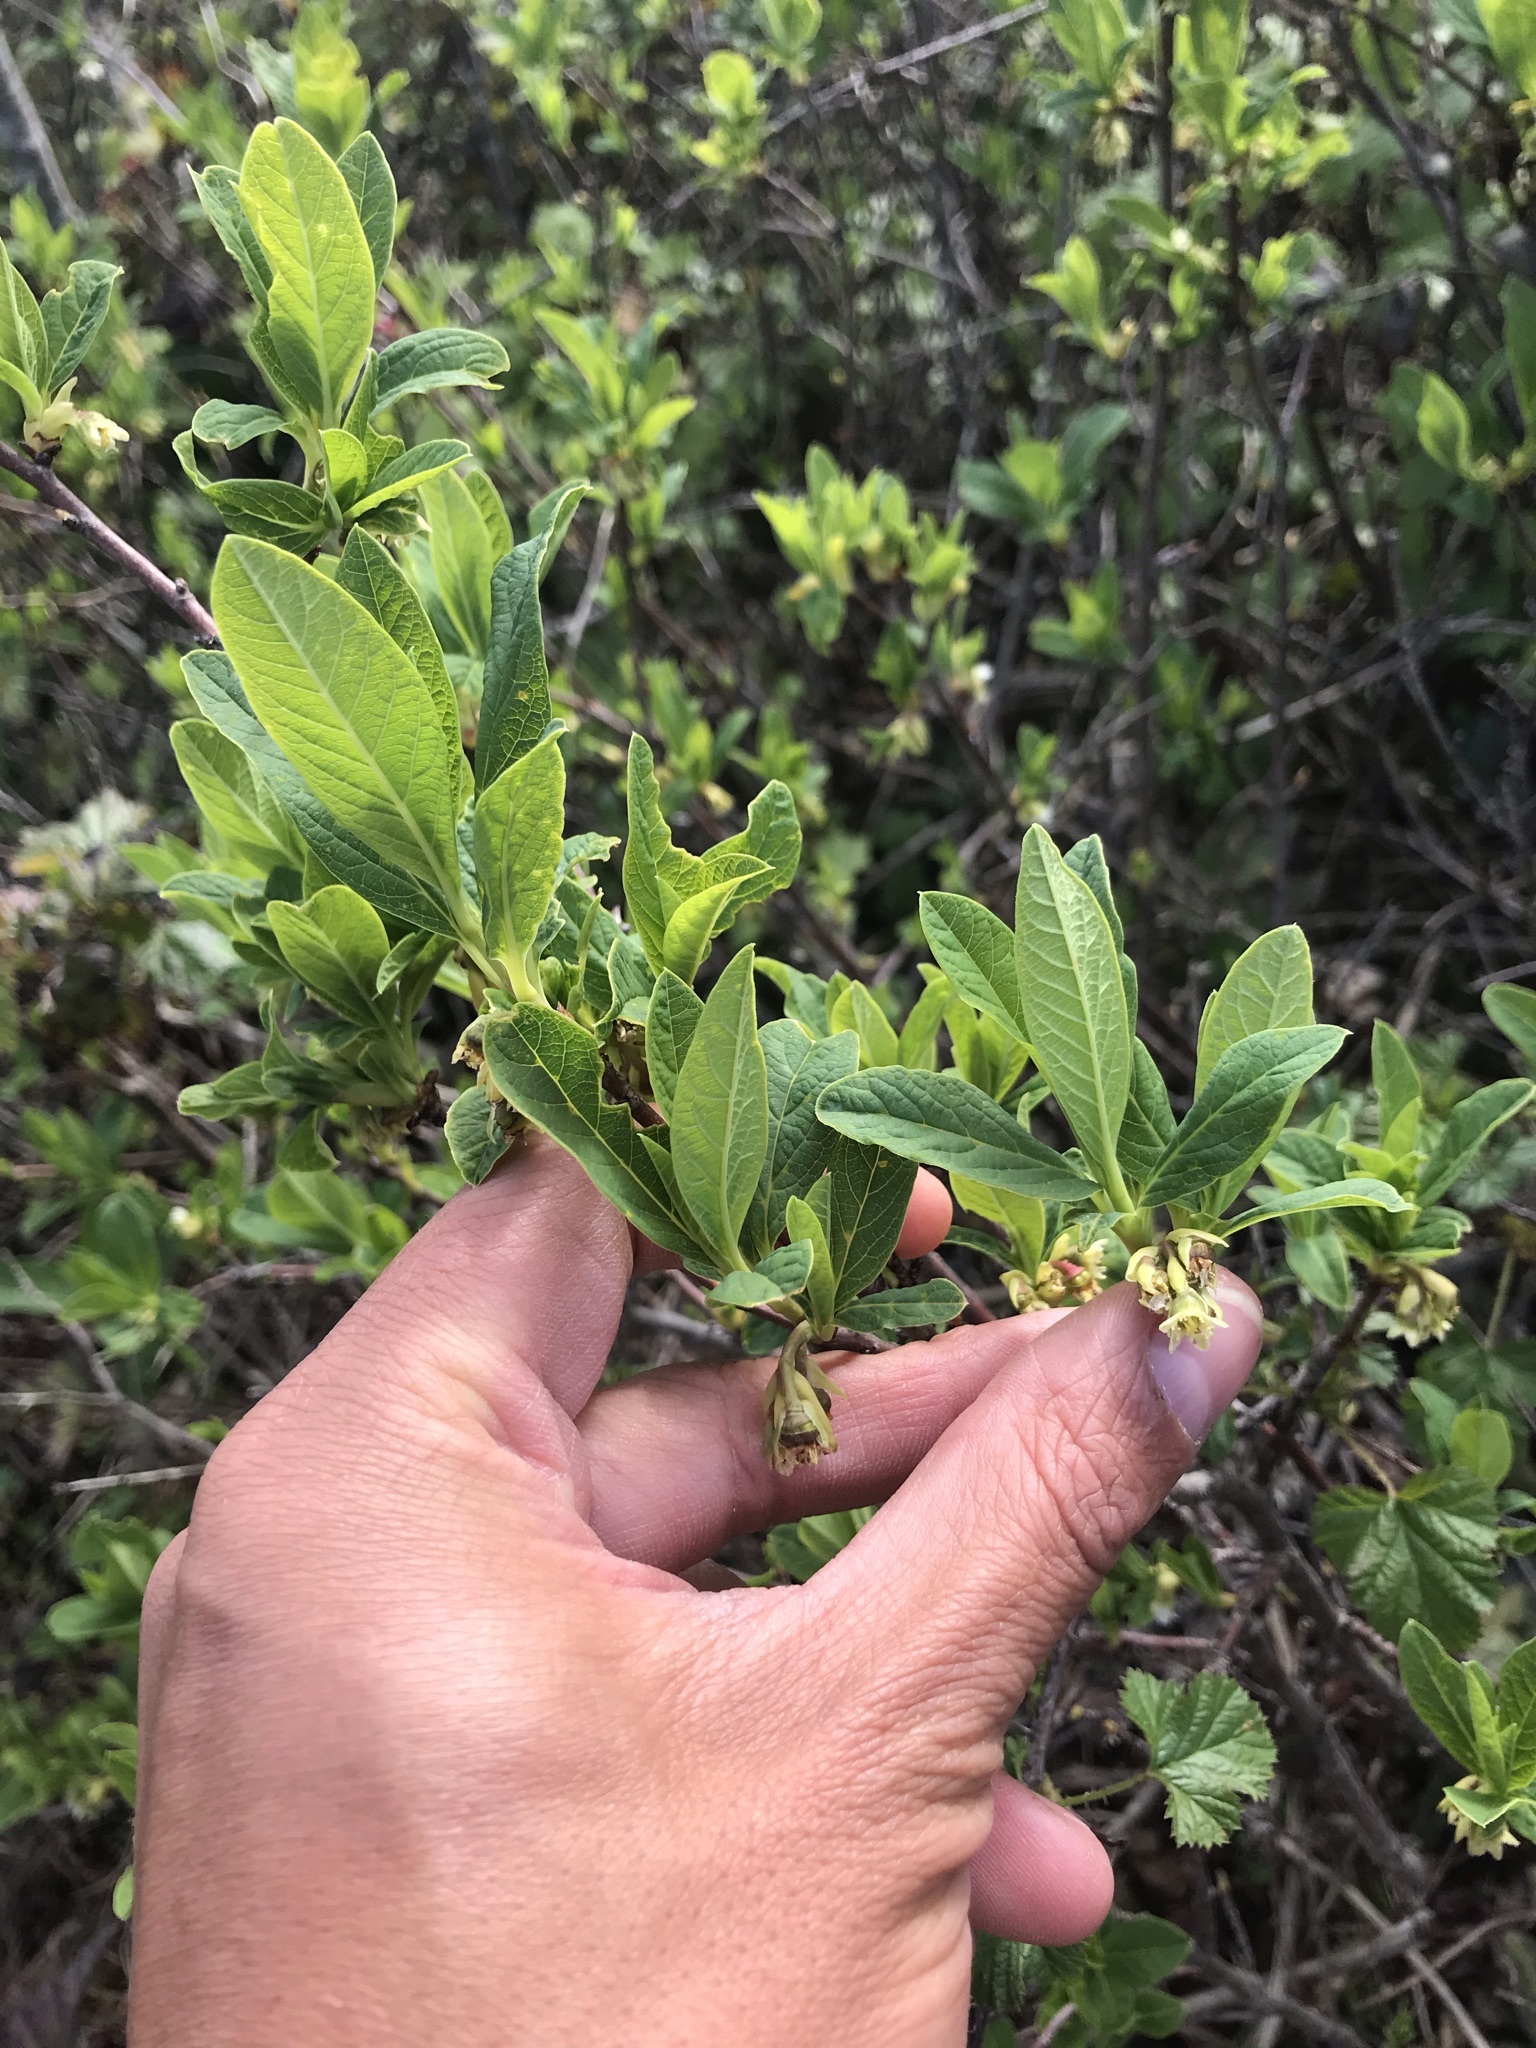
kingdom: Plantae
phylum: Tracheophyta
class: Magnoliopsida
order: Rosales
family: Rosaceae
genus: Oemleria
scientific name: Oemleria cerasiformis
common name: Osoberry
